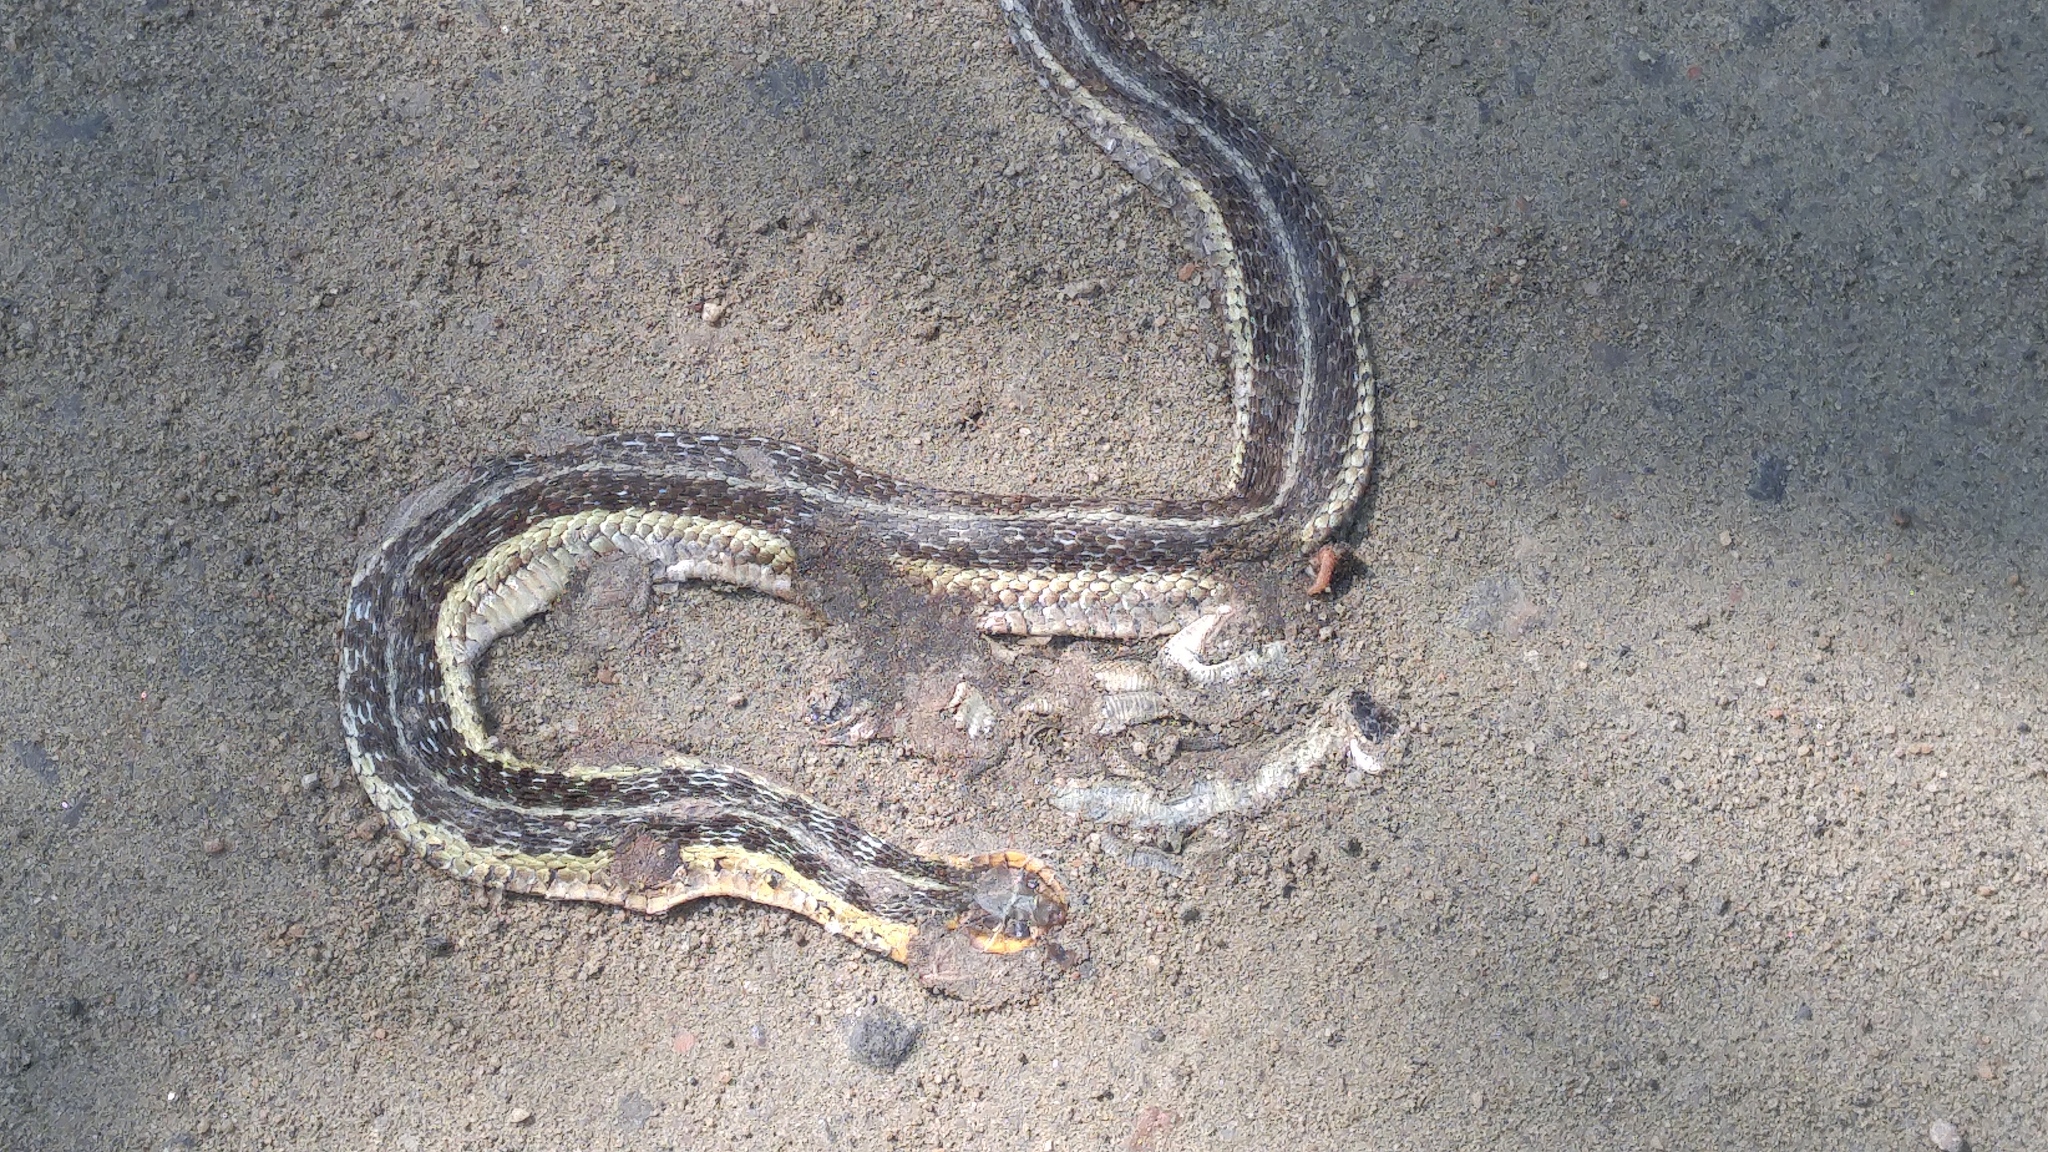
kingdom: Animalia
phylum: Chordata
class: Squamata
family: Colubridae
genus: Thamnophis
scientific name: Thamnophis sirtalis
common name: Common garter snake
